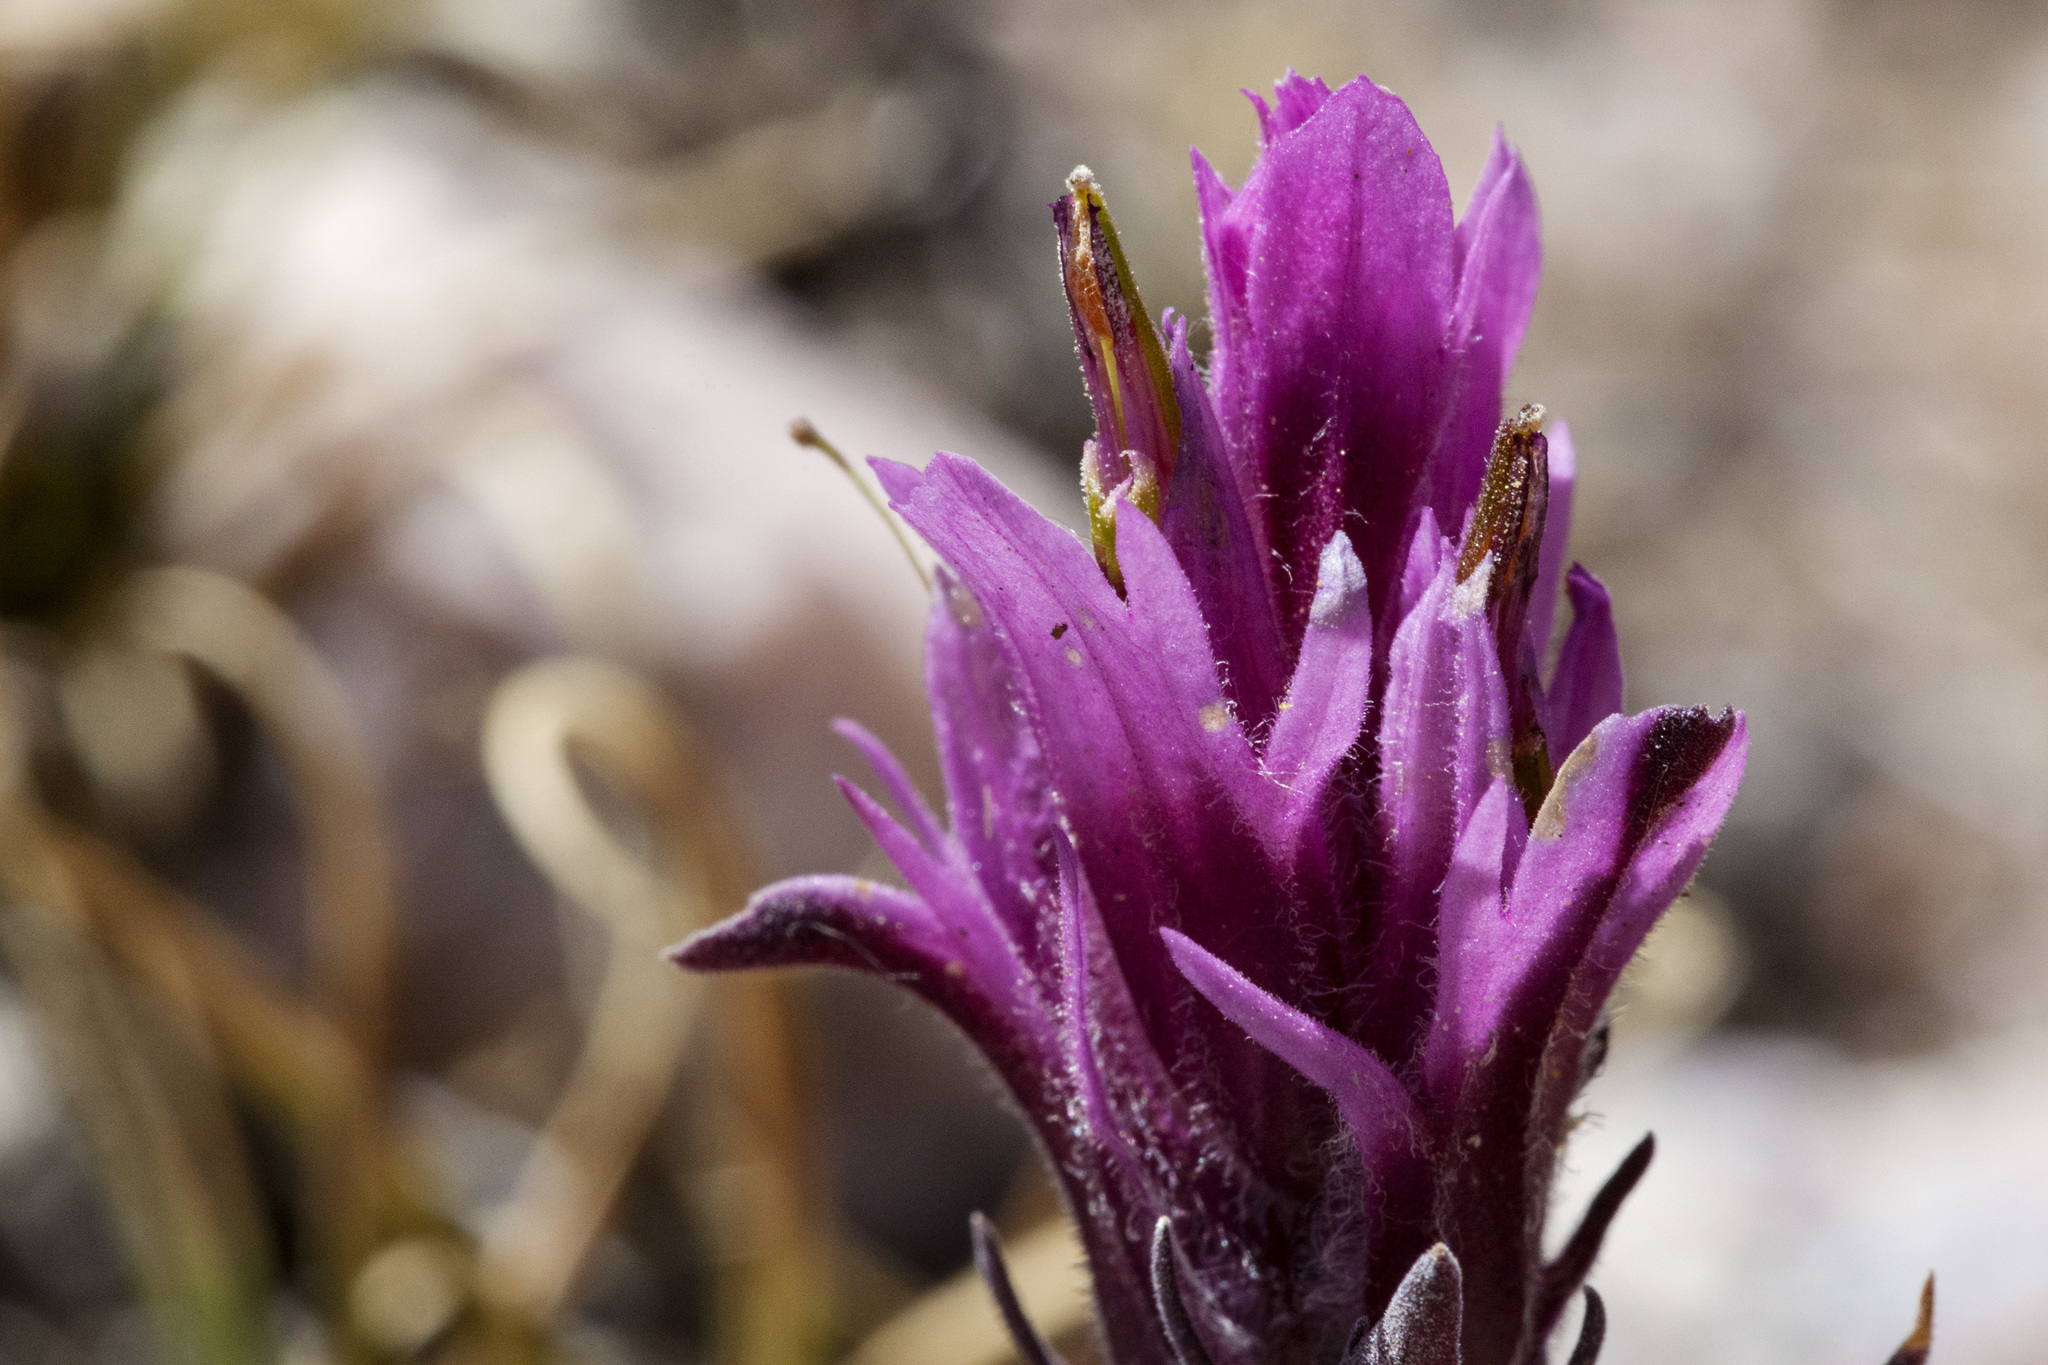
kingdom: Plantae
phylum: Tracheophyta
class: Magnoliopsida
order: Lamiales
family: Orobanchaceae
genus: Castilleja
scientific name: Castilleja haydenii
